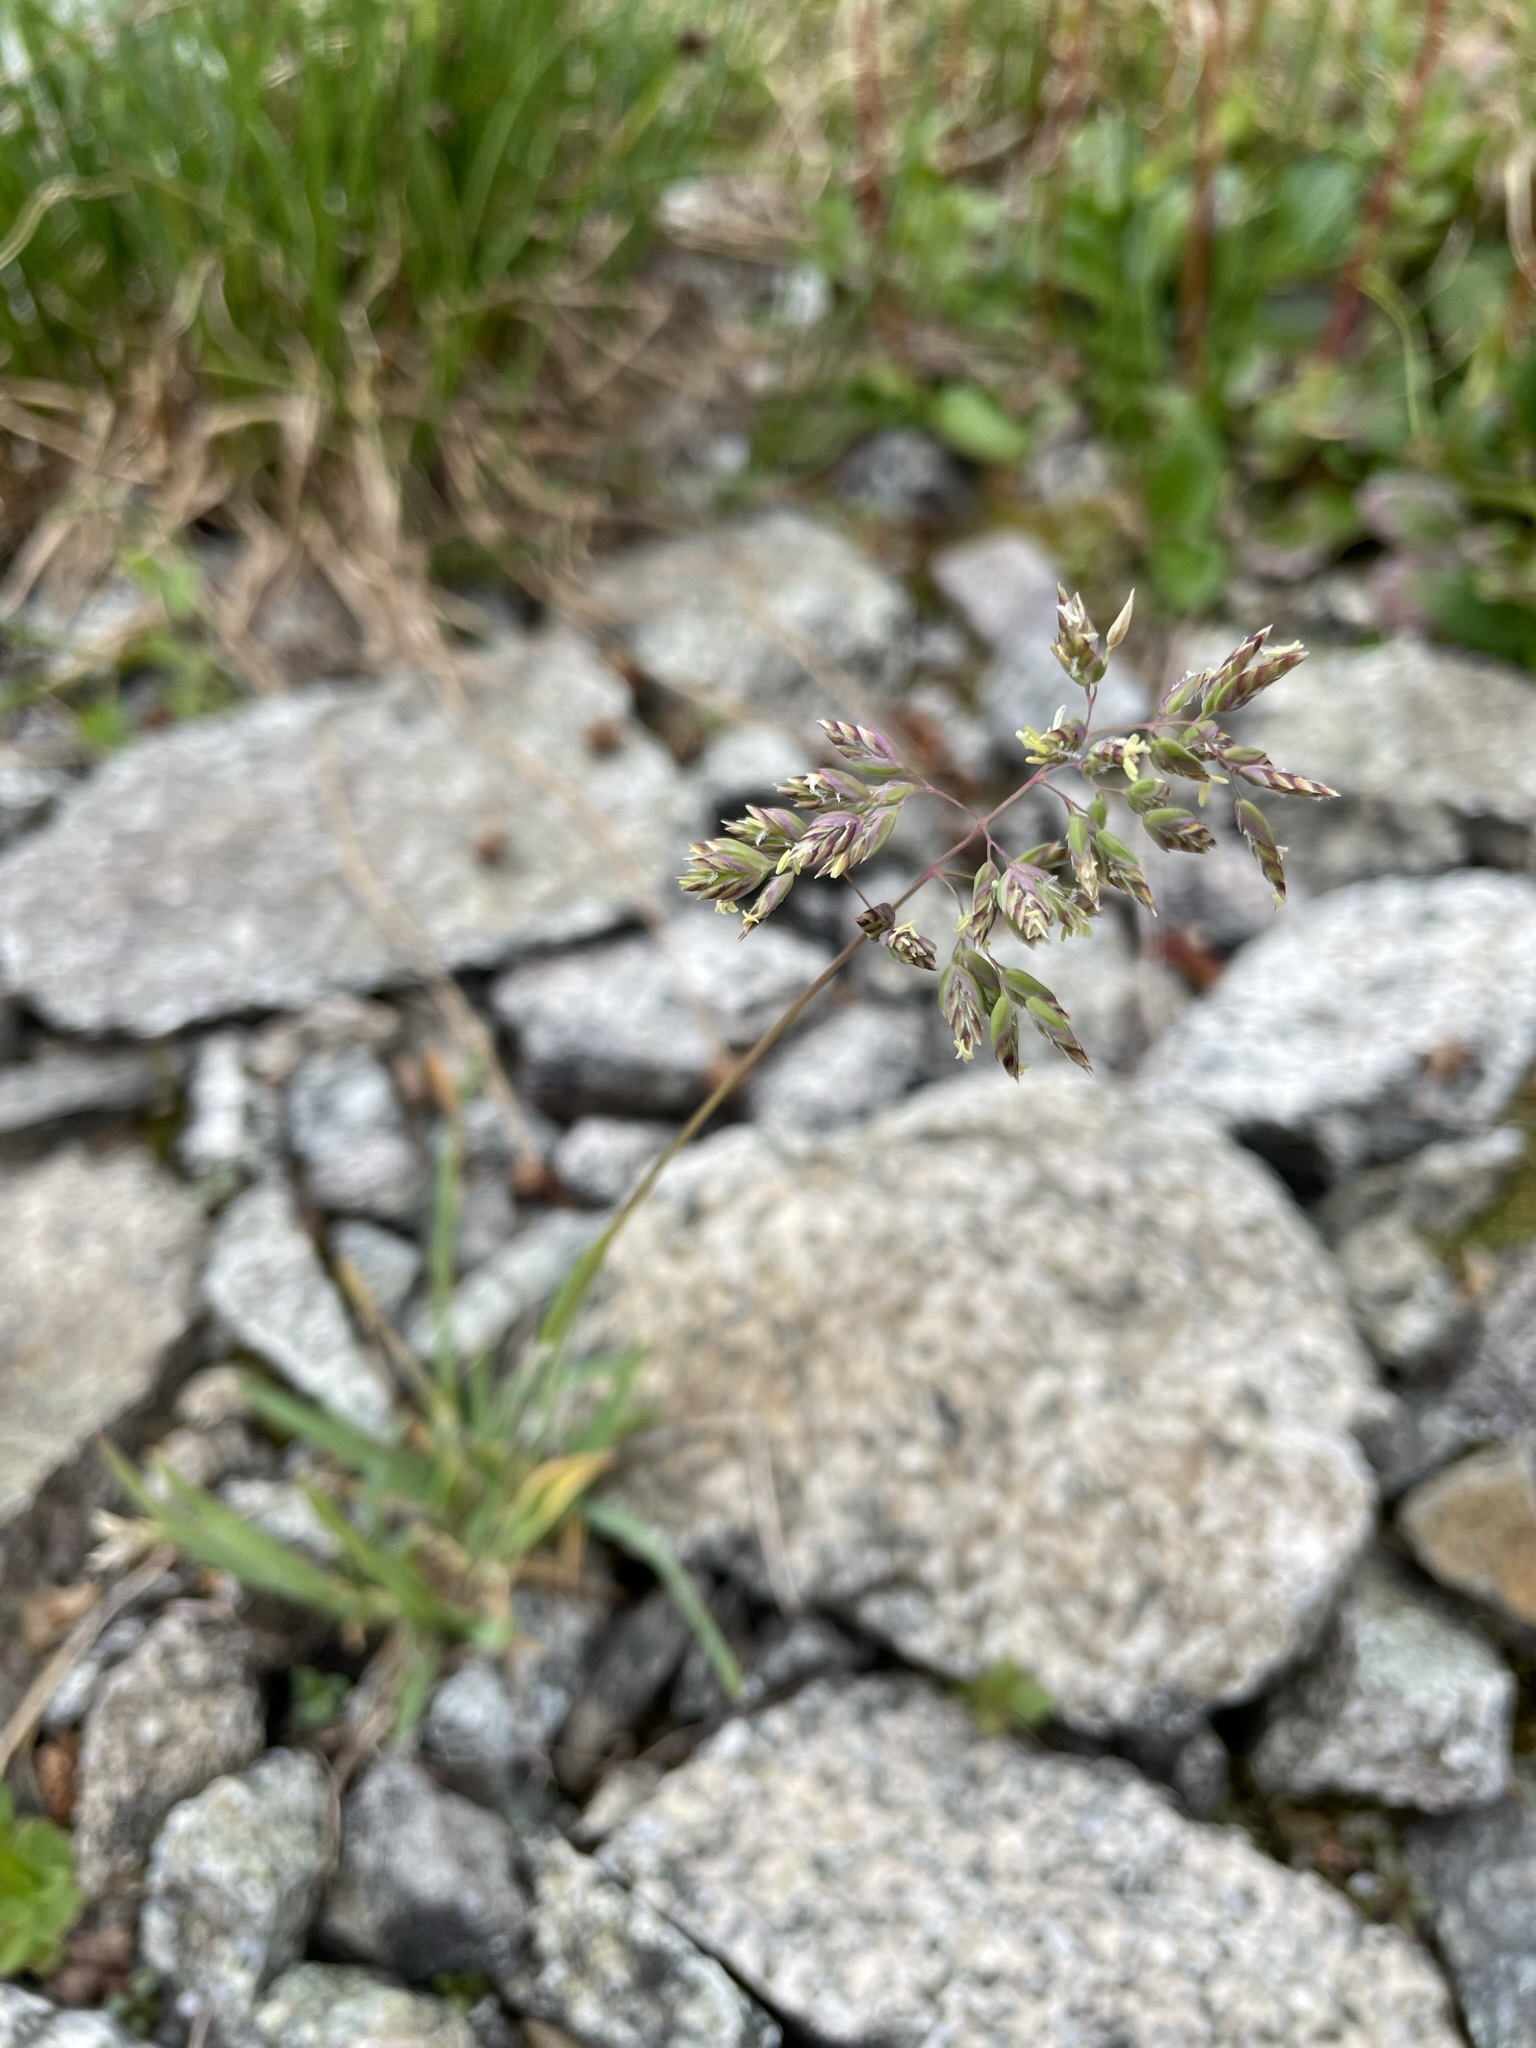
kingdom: Plantae
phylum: Tracheophyta
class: Liliopsida
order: Poales
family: Poaceae
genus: Poa
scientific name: Poa alpina
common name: Alpine bluegrass
